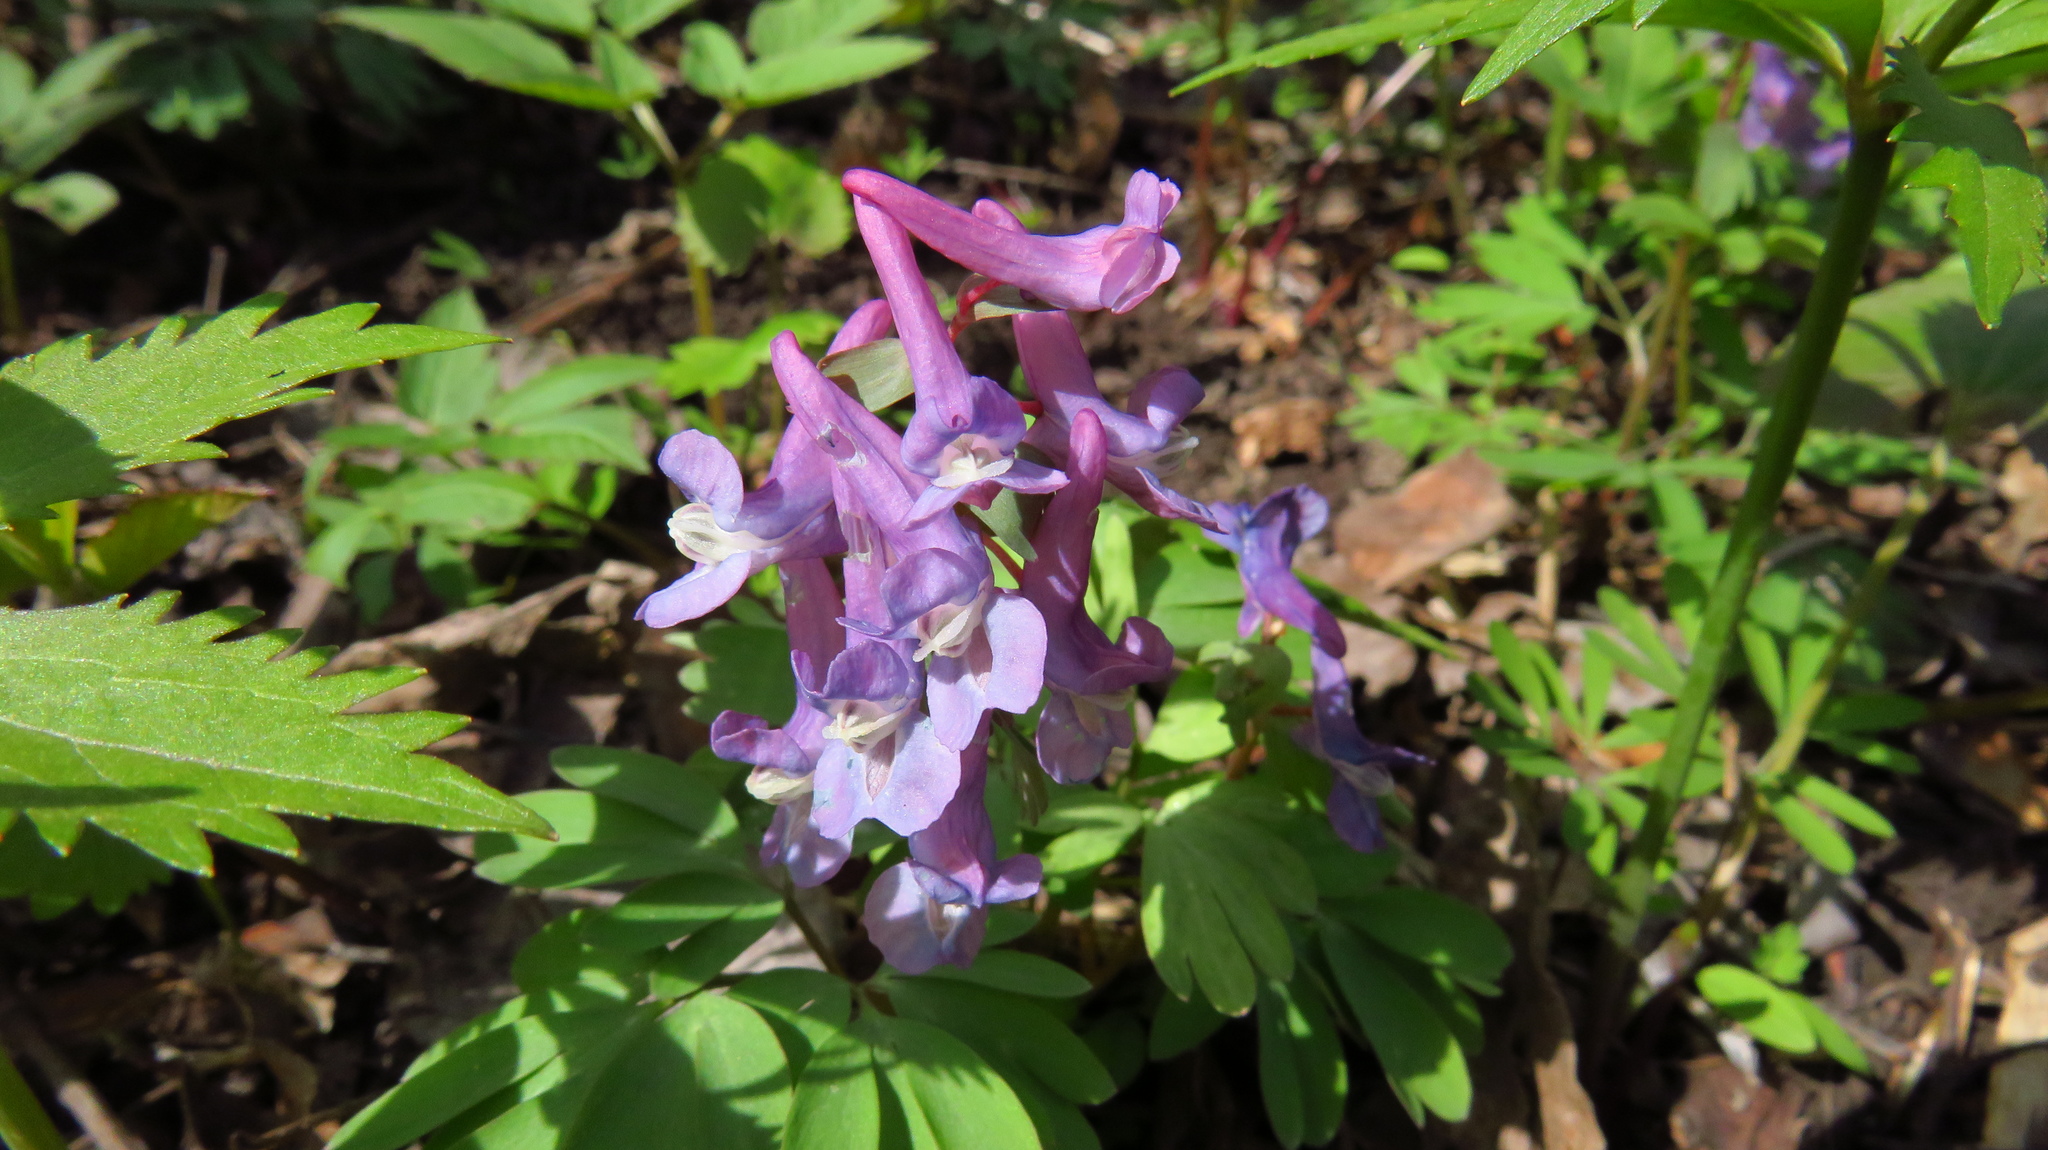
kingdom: Plantae
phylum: Tracheophyta
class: Magnoliopsida
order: Ranunculales
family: Papaveraceae
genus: Corydalis
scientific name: Corydalis solida
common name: Bird-in-a-bush
